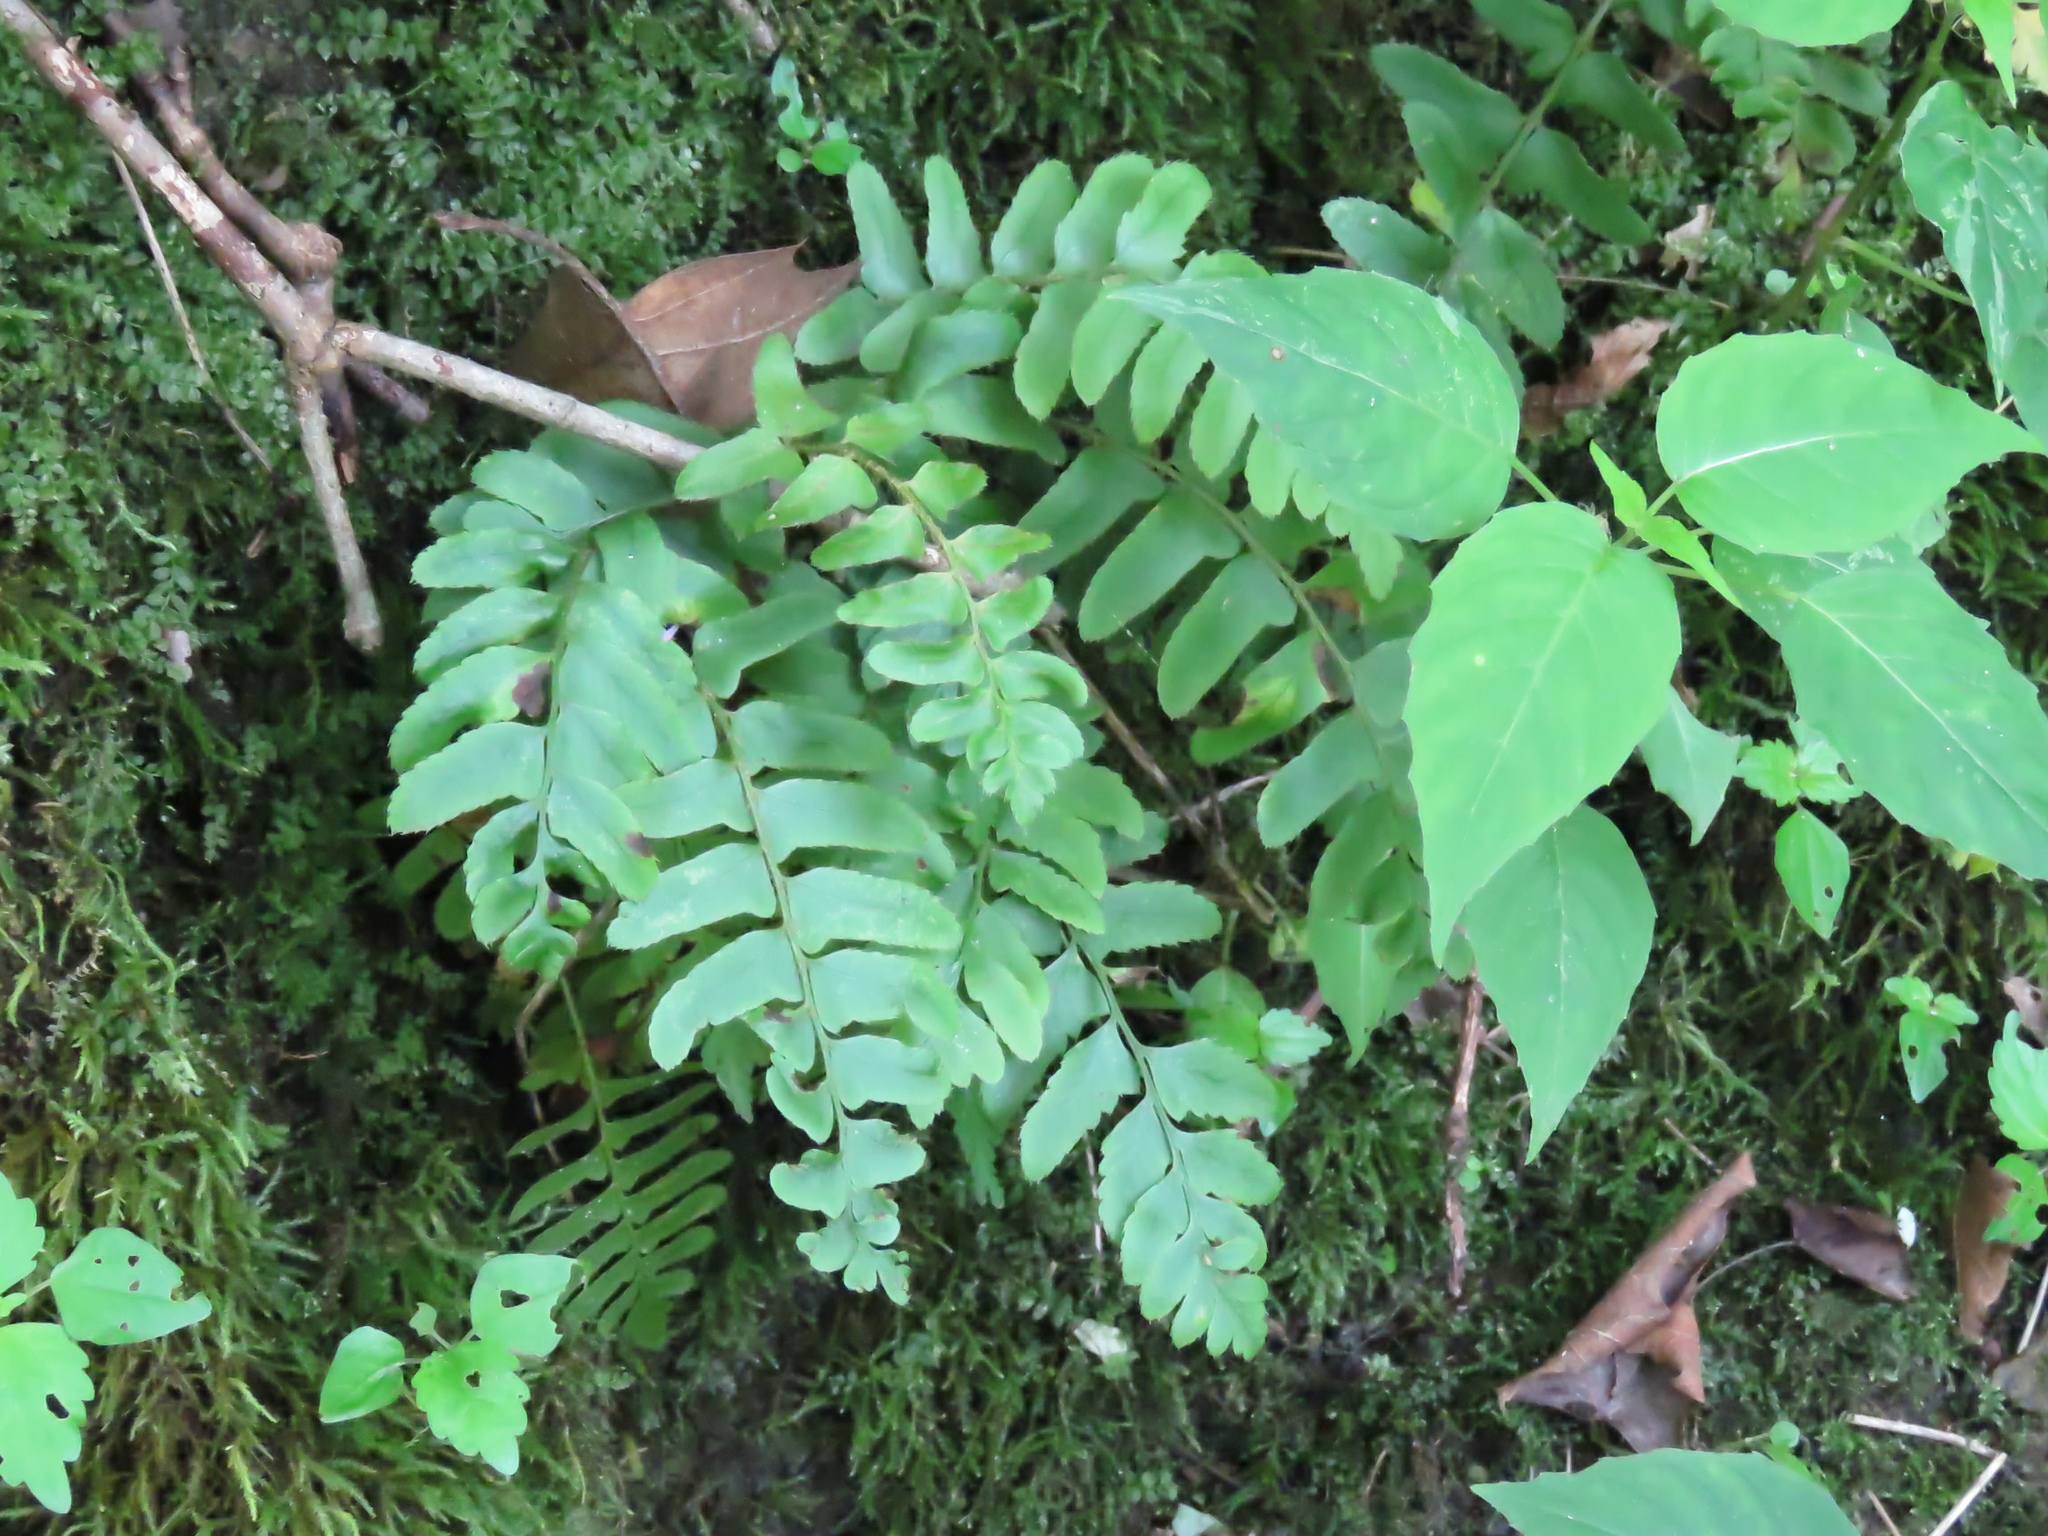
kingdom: Plantae
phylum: Tracheophyta
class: Polypodiopsida
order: Polypodiales
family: Dryopteridaceae
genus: Polystichum
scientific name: Polystichum acrostichoides
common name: Christmas fern
